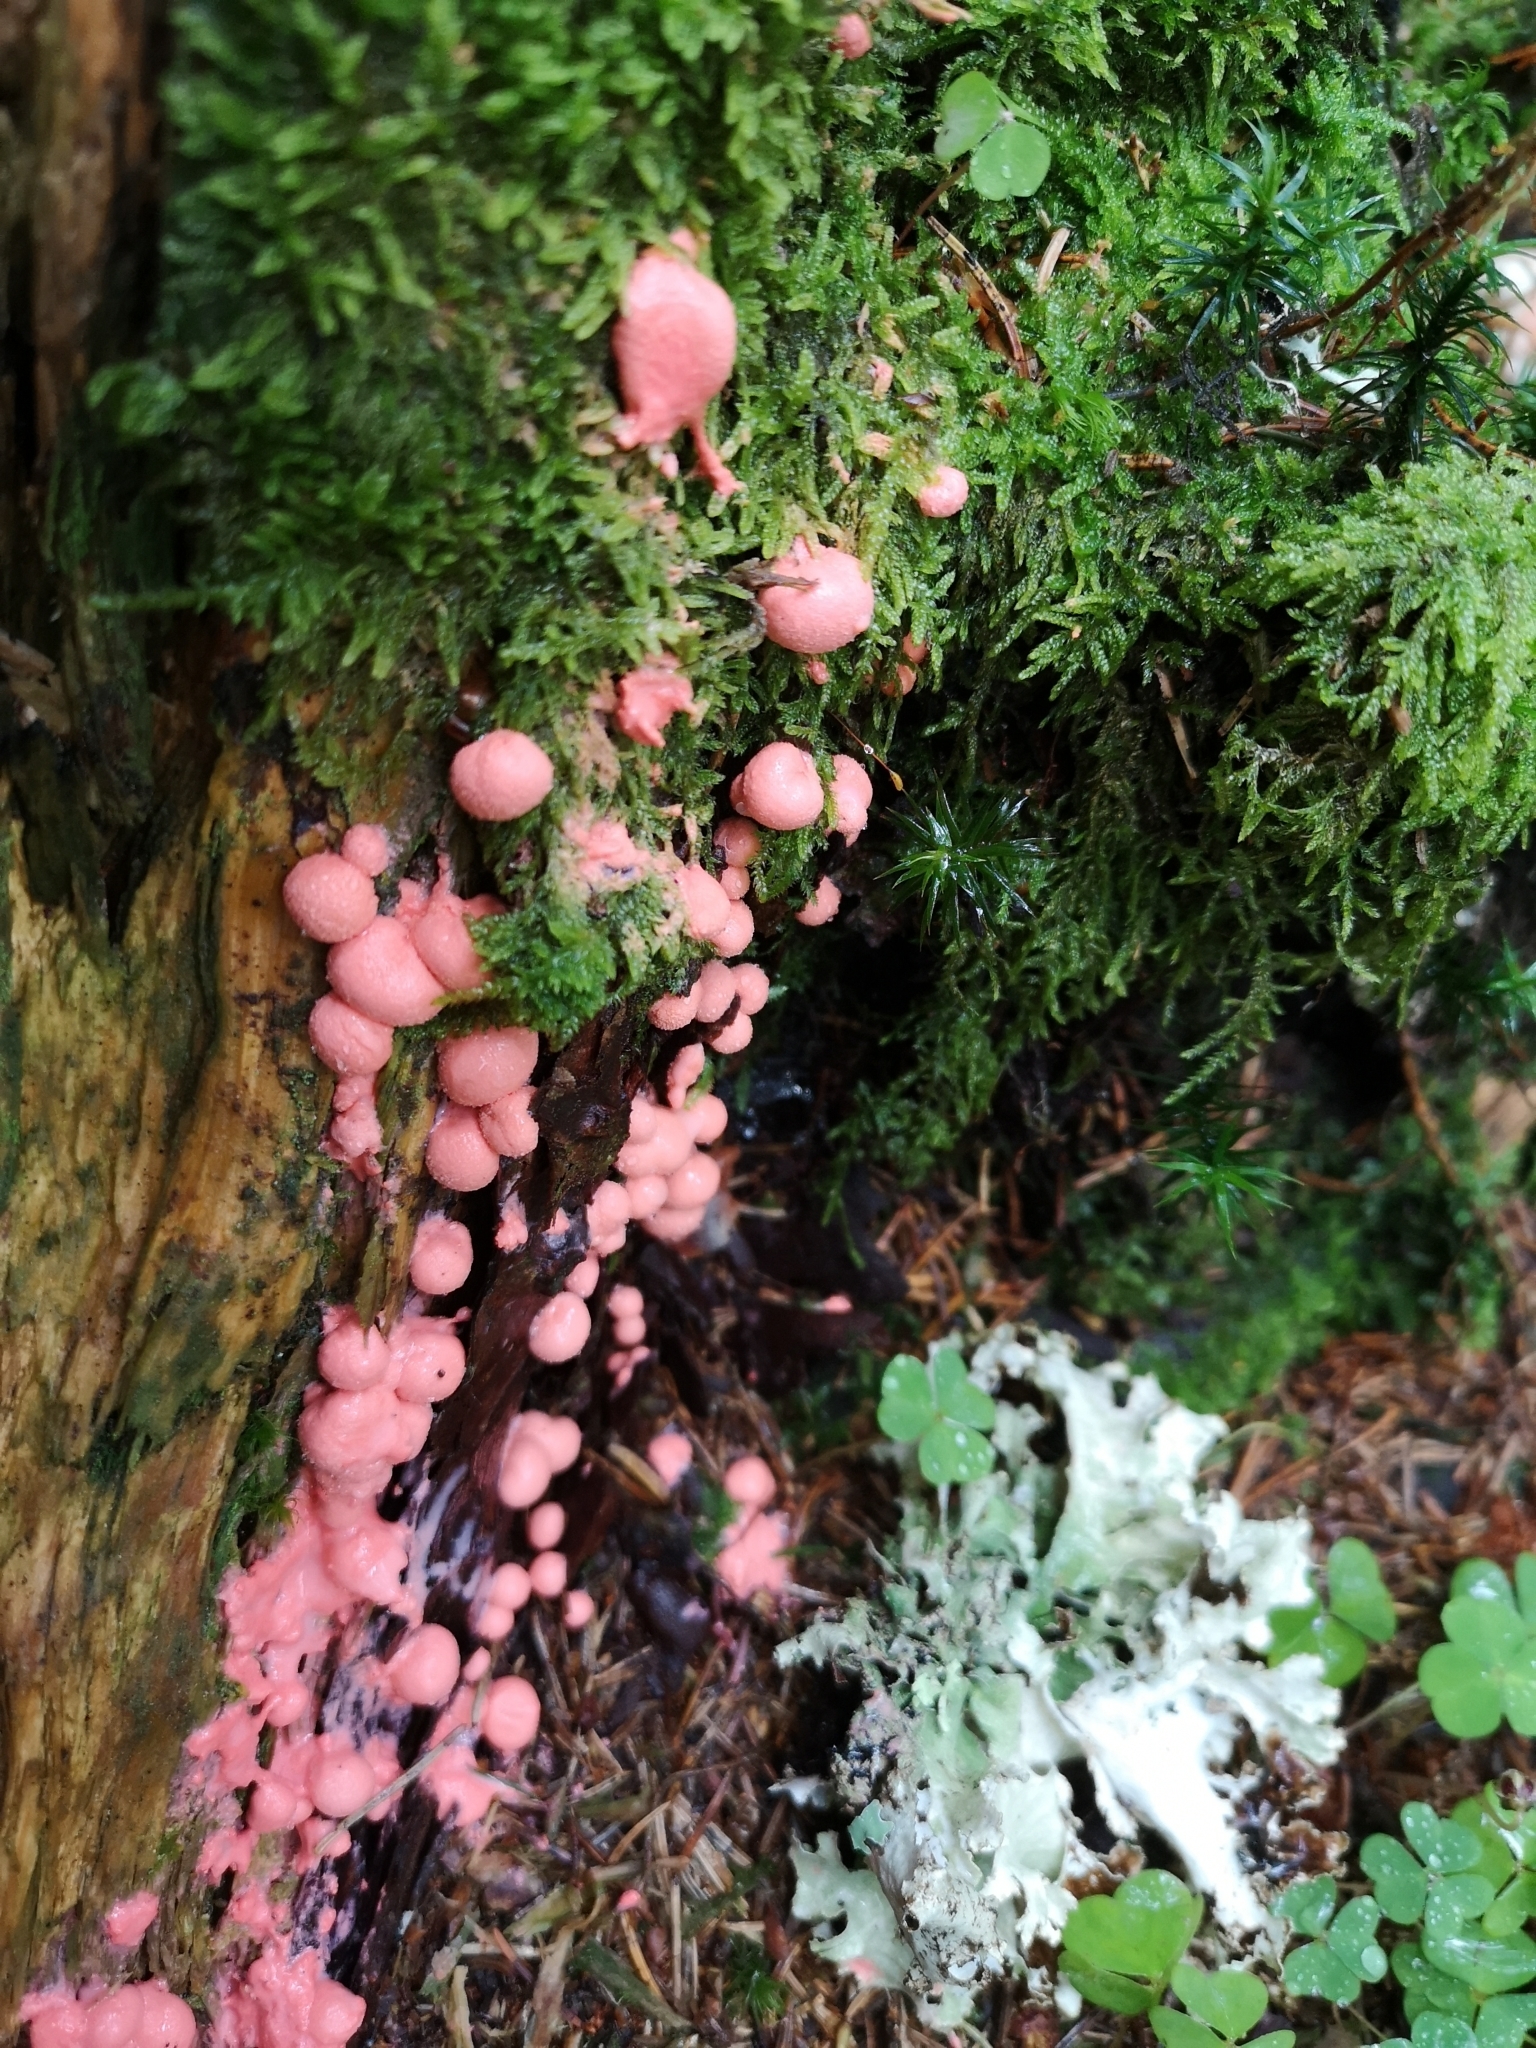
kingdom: Protozoa
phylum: Mycetozoa
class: Myxomycetes
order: Cribrariales
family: Tubiferaceae
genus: Lycogala
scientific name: Lycogala epidendrum
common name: Wolf's milk
